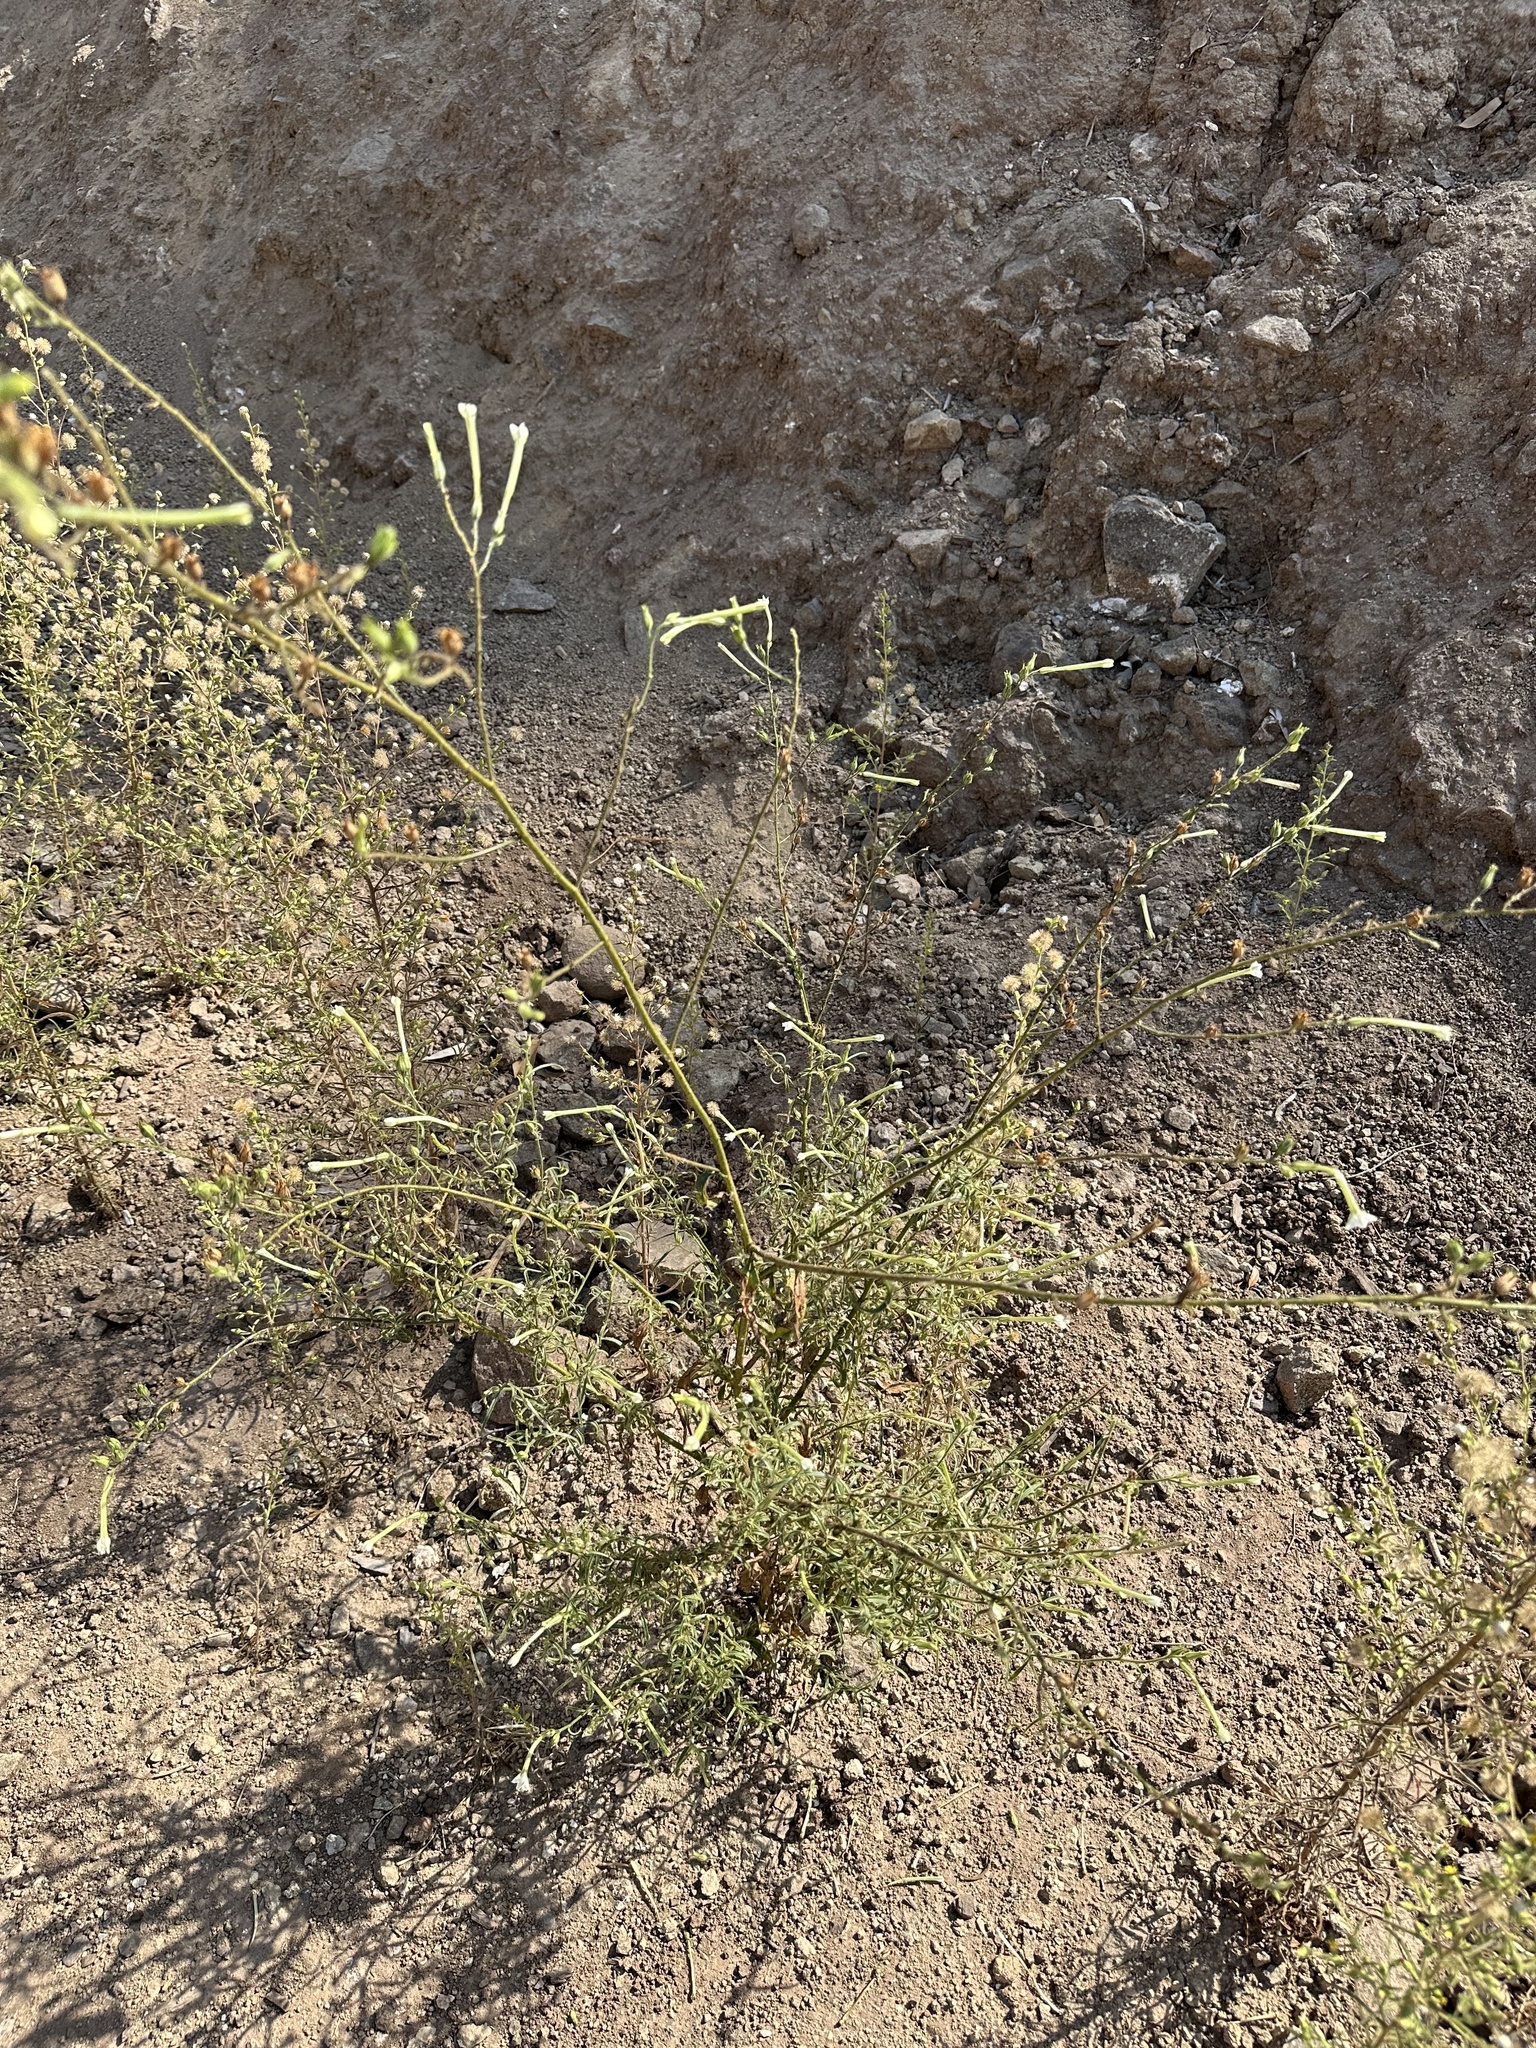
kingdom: Plantae
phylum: Tracheophyta
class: Magnoliopsida
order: Solanales
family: Solanaceae
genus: Nicotiana
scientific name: Nicotiana acuminata
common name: Manyflower tobacco
